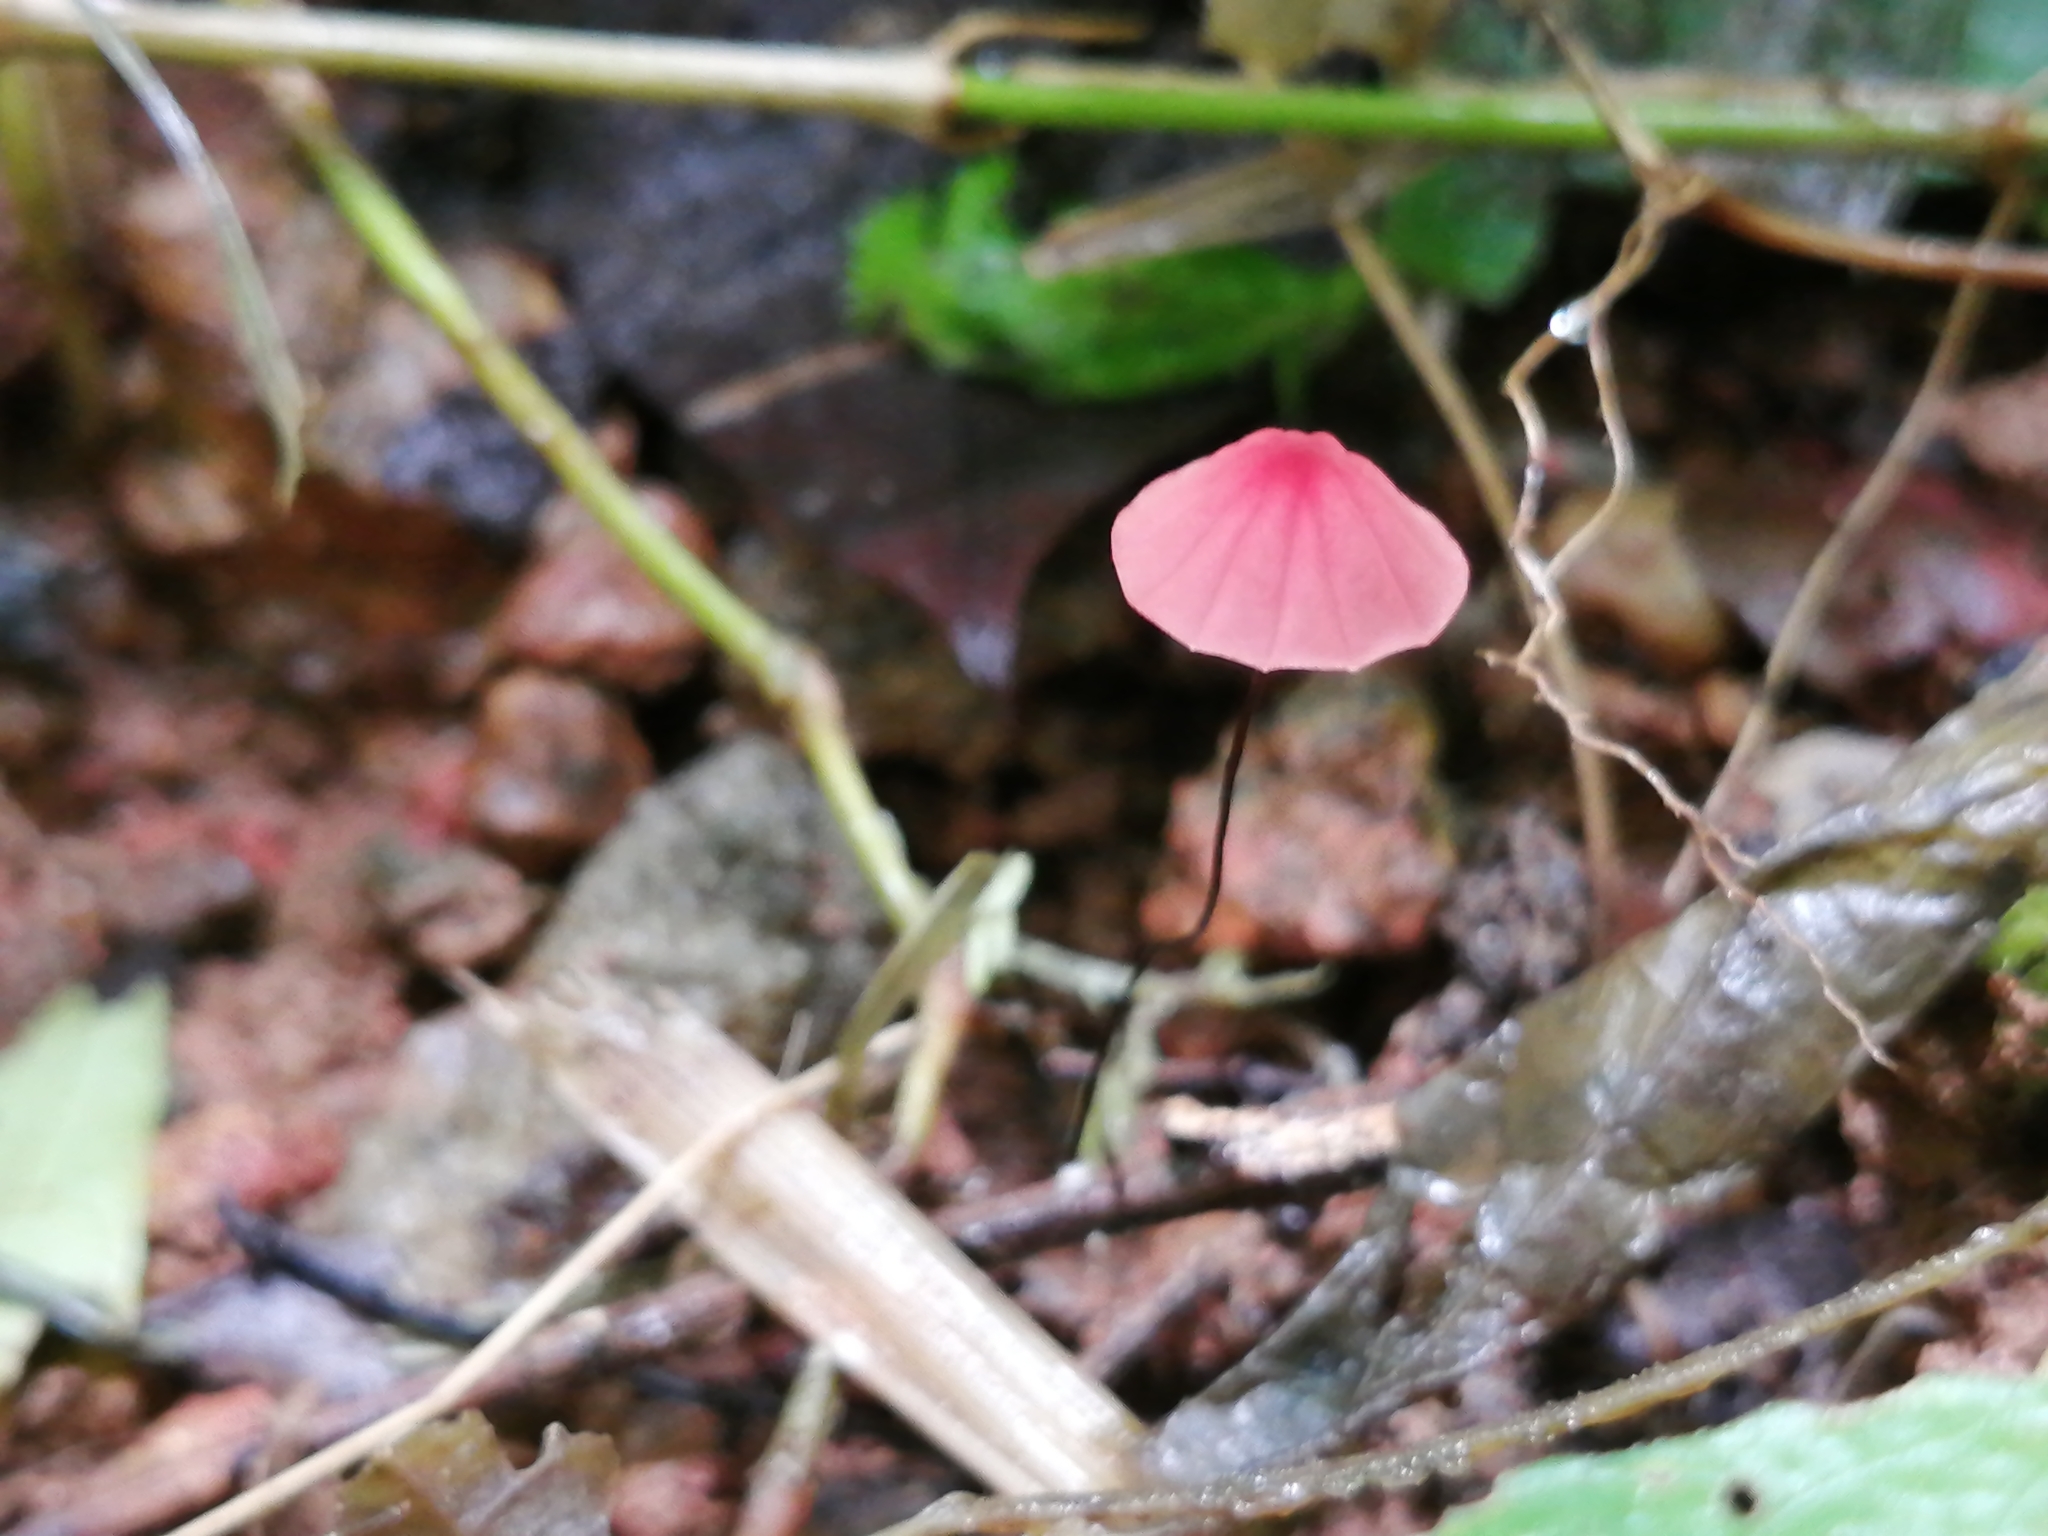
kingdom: Fungi
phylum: Basidiomycota
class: Agaricomycetes
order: Agaricales
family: Marasmiaceae
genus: Marasmius
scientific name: Marasmius haematocephalus
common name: Purple pinwheel
